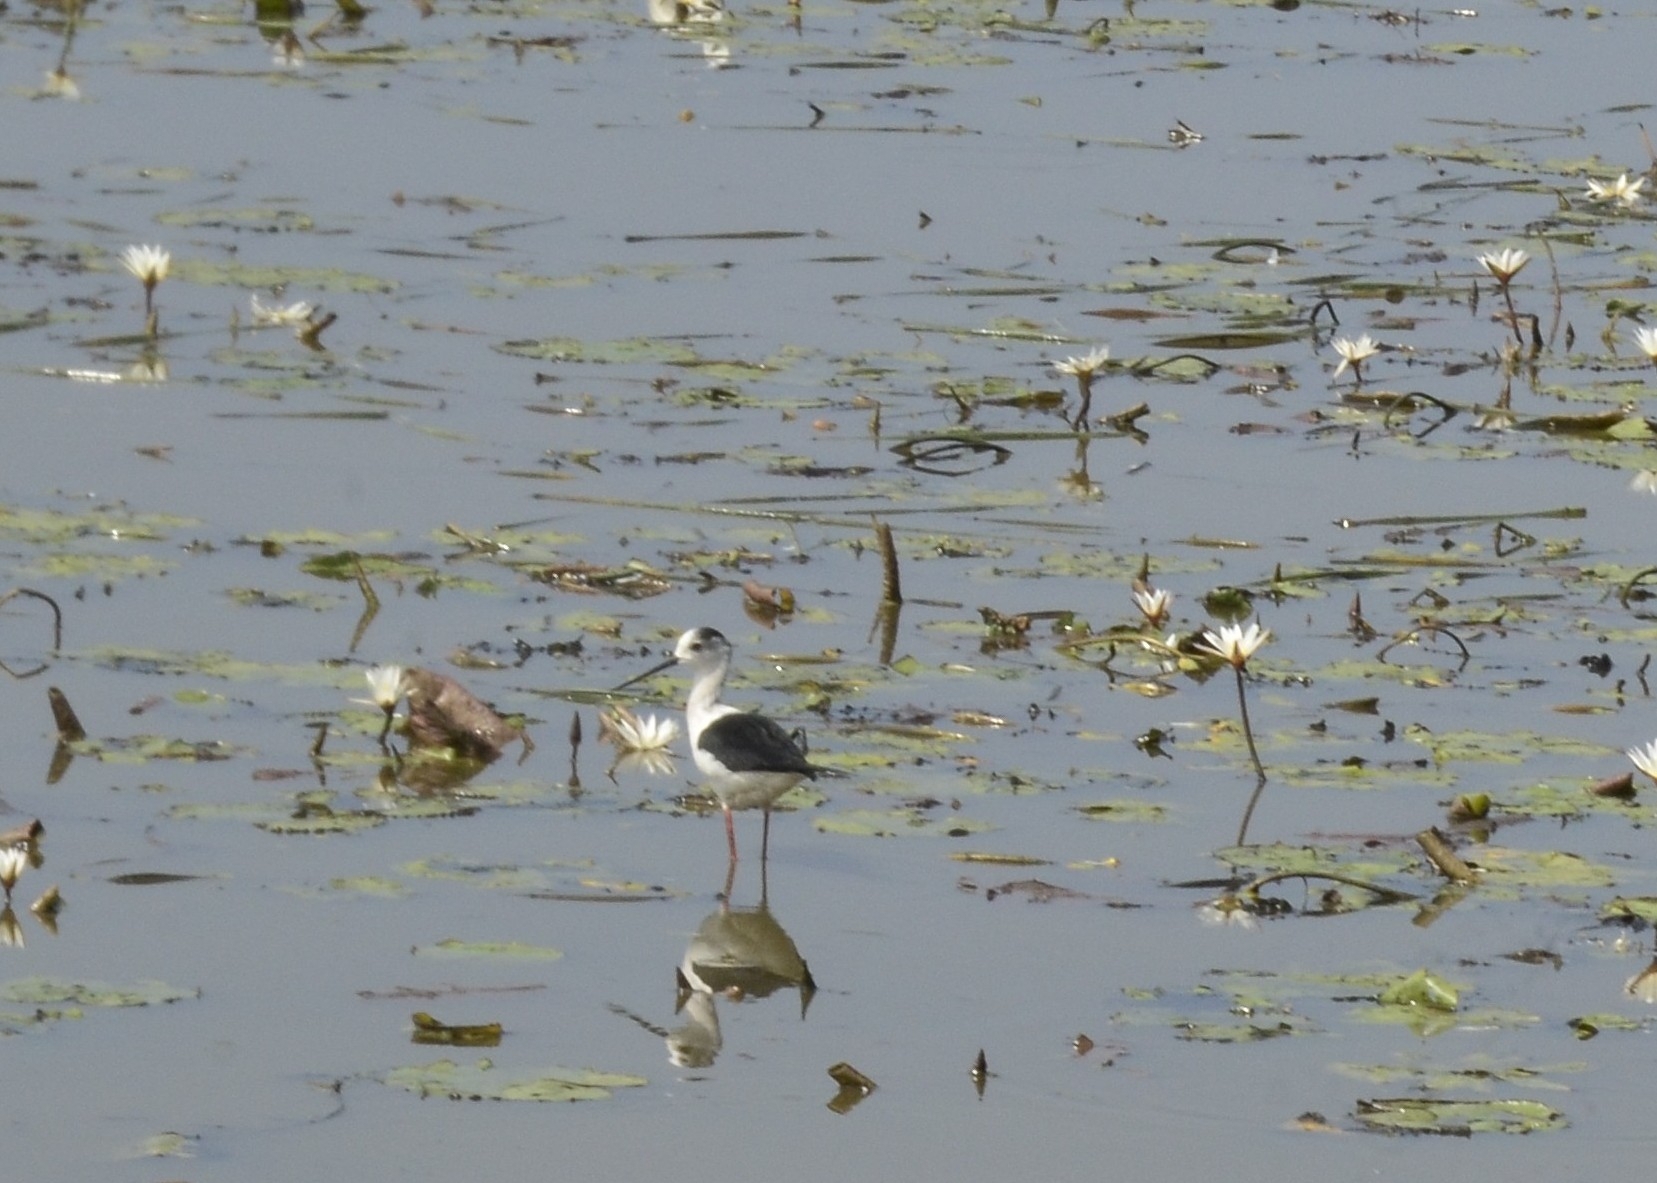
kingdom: Animalia
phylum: Chordata
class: Aves
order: Charadriiformes
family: Recurvirostridae
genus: Himantopus
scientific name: Himantopus himantopus
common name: Black-winged stilt
